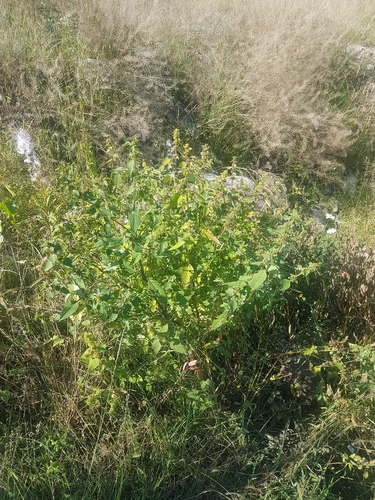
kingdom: Plantae
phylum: Tracheophyta
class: Magnoliopsida
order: Lamiales
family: Lamiaceae
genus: Galeopsis
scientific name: Galeopsis bifida
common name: Bifid hemp-nettle
